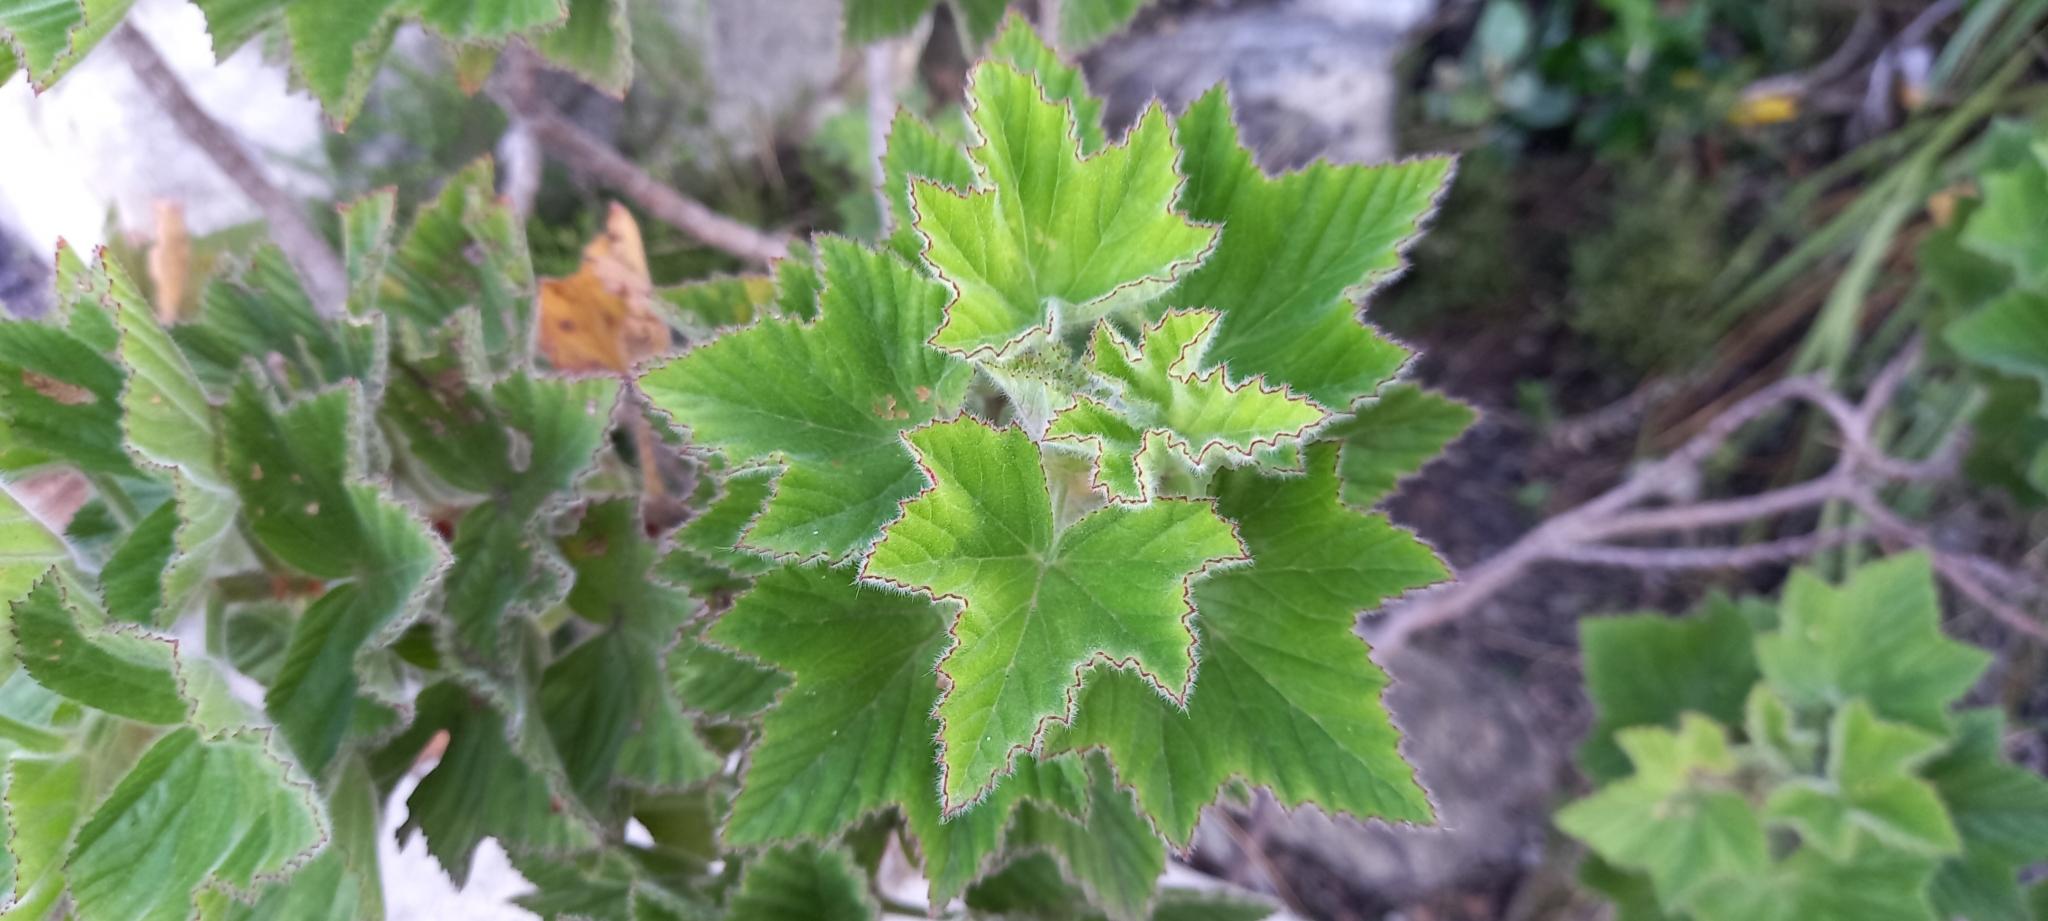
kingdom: Plantae
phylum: Tracheophyta
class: Magnoliopsida
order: Geraniales
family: Geraniaceae
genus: Pelargonium
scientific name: Pelargonium cucullatum
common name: Tree pelargonium
